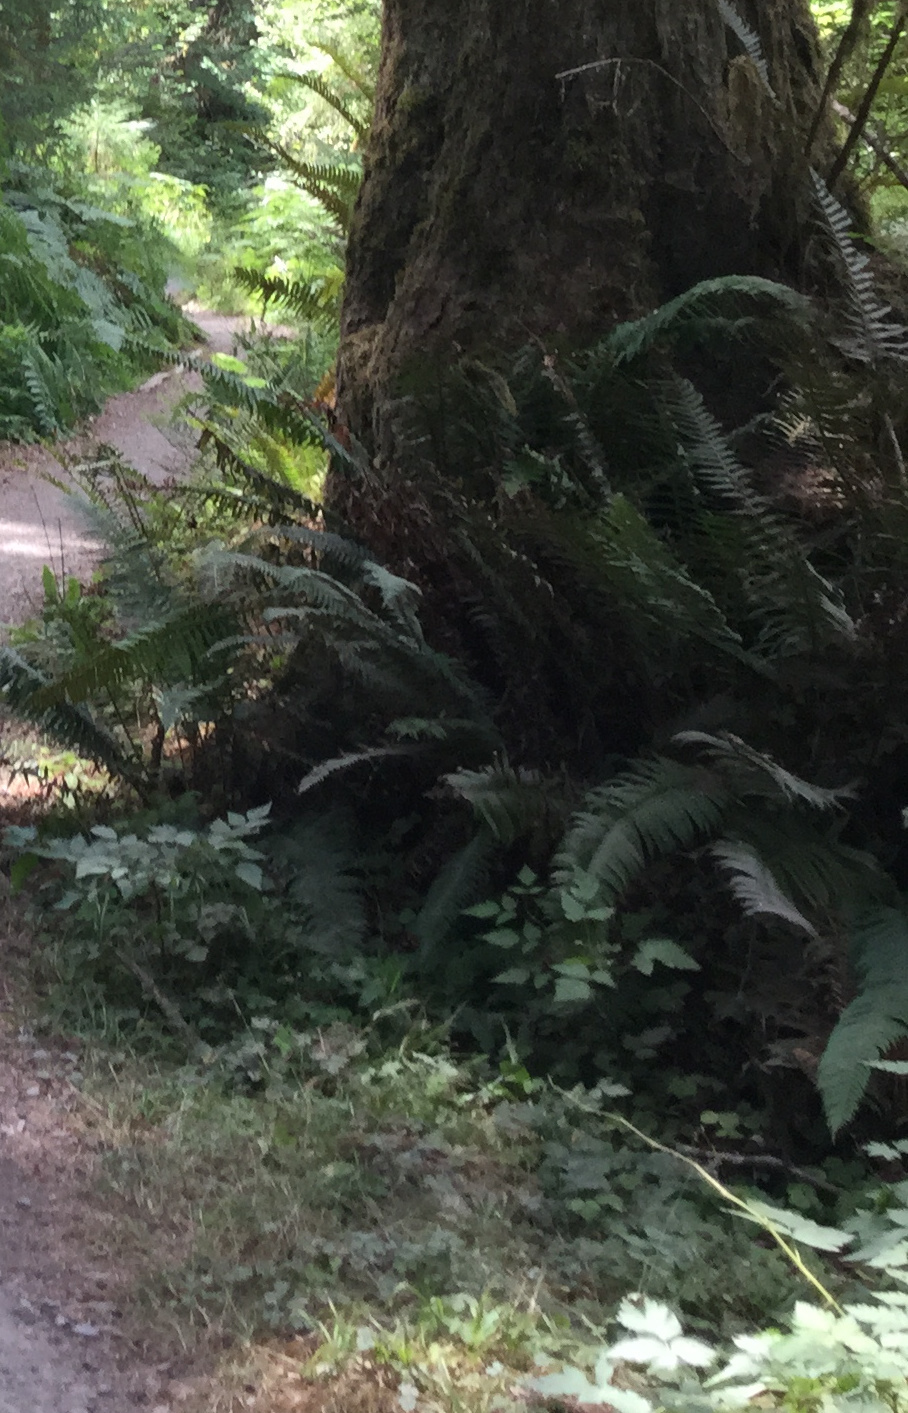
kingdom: Plantae
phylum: Tracheophyta
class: Polypodiopsida
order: Polypodiales
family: Dryopteridaceae
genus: Polystichum
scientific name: Polystichum munitum
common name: Western sword-fern
